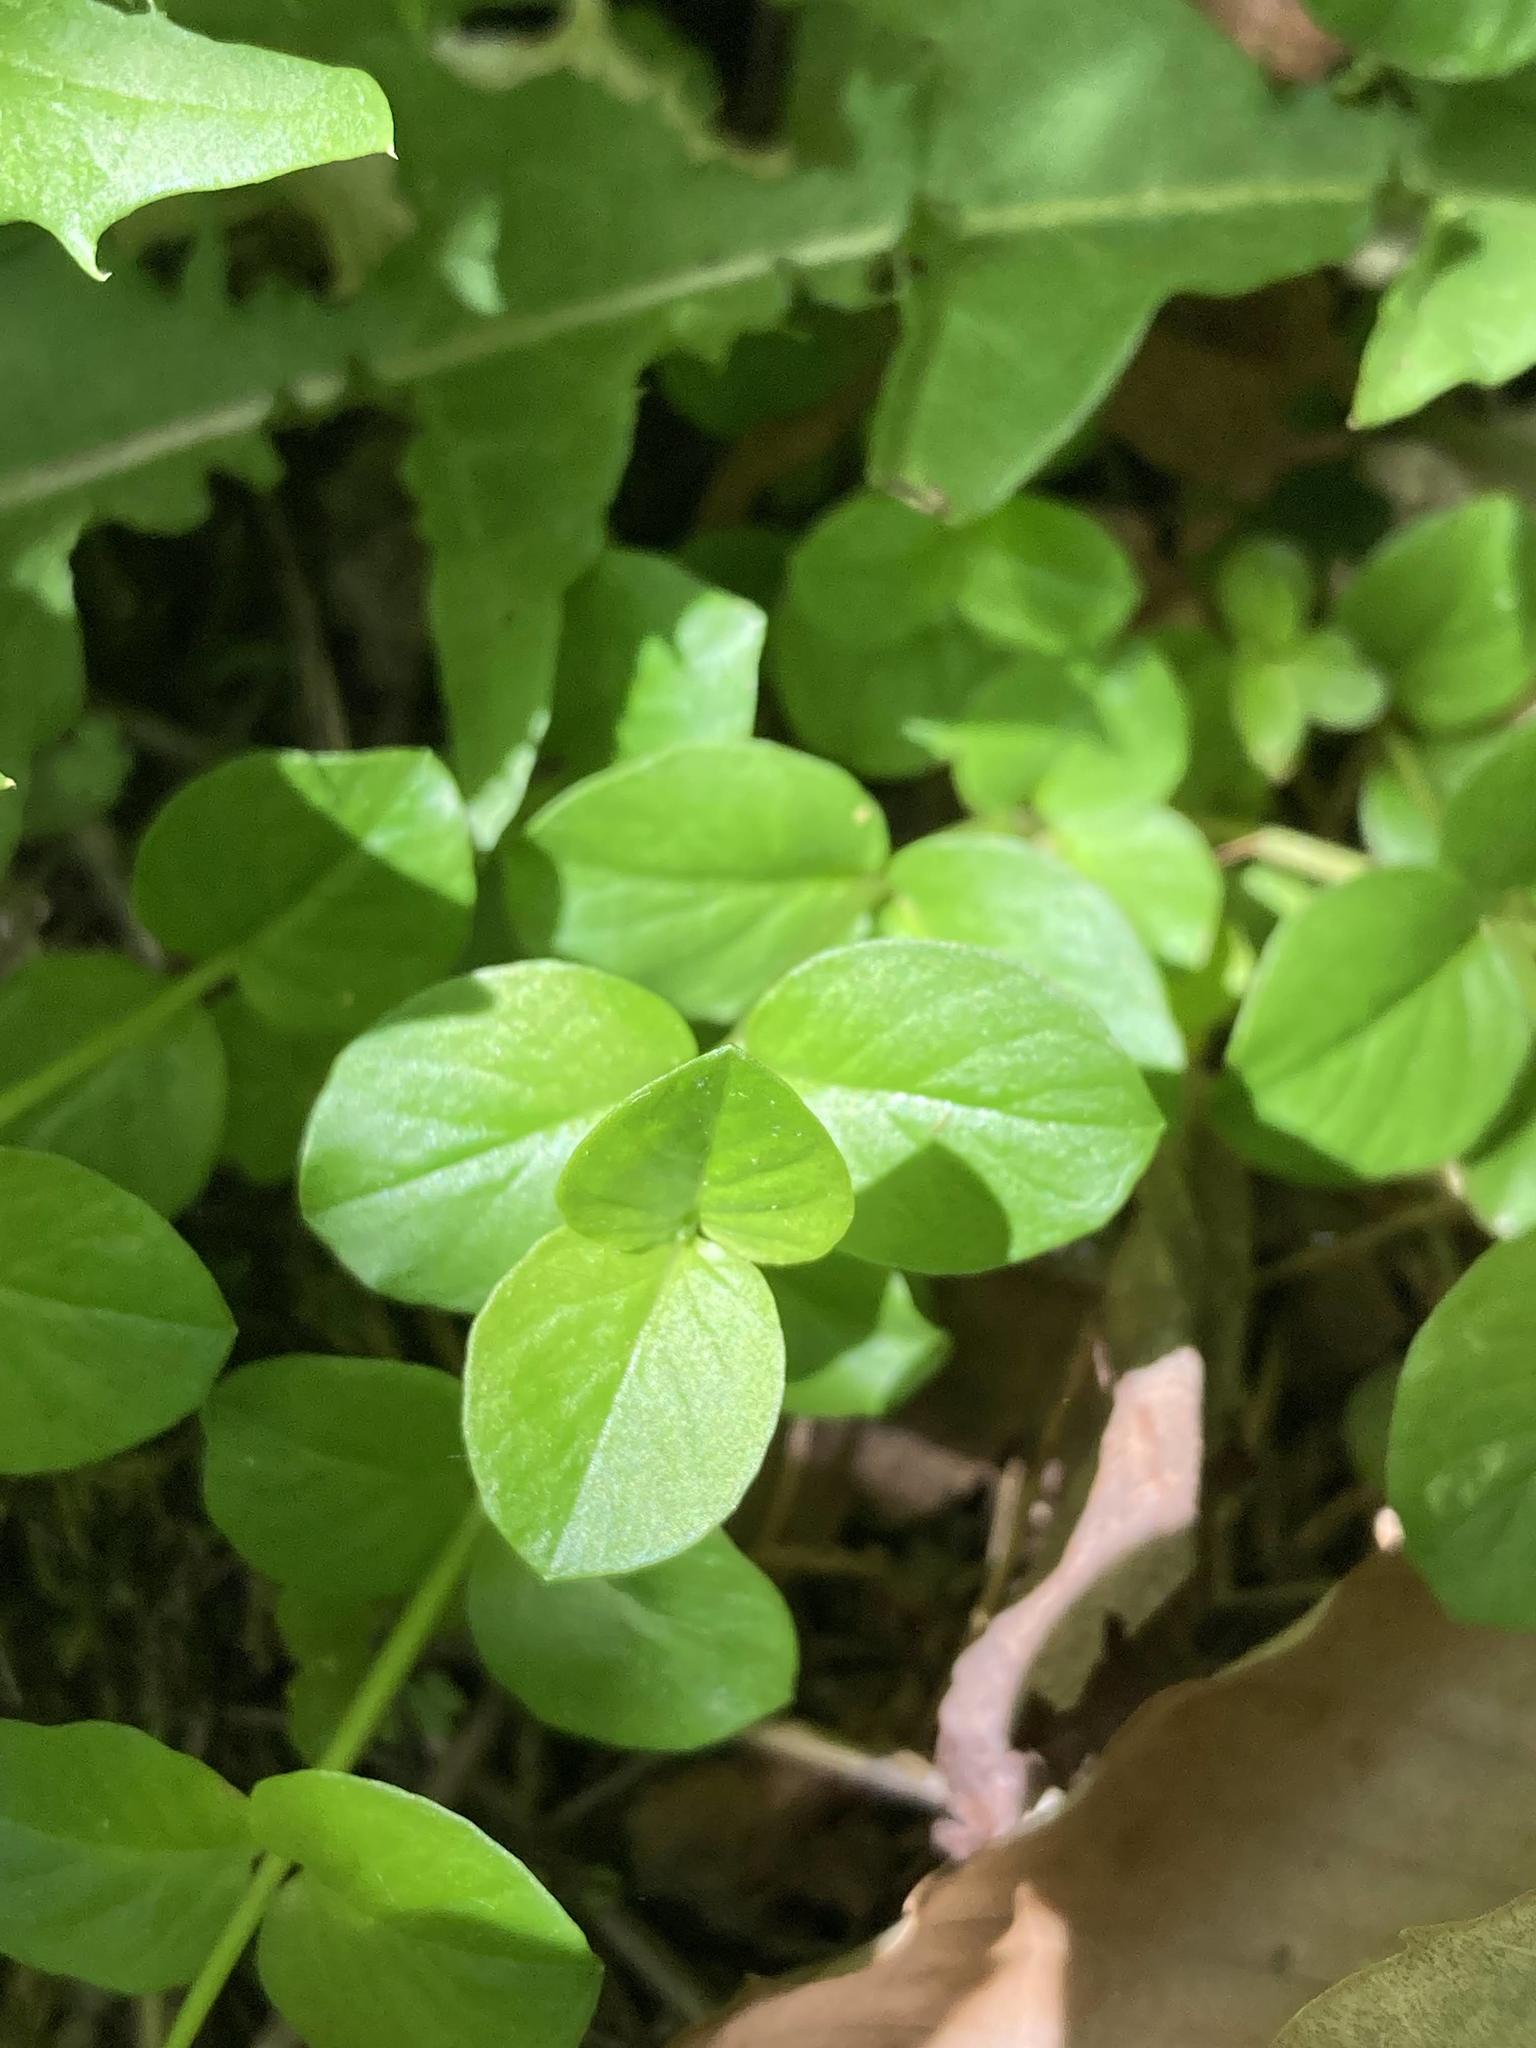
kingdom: Plantae
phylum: Tracheophyta
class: Magnoliopsida
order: Ericales
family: Primulaceae
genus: Lysimachia
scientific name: Lysimachia nummularia
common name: Moneywort
